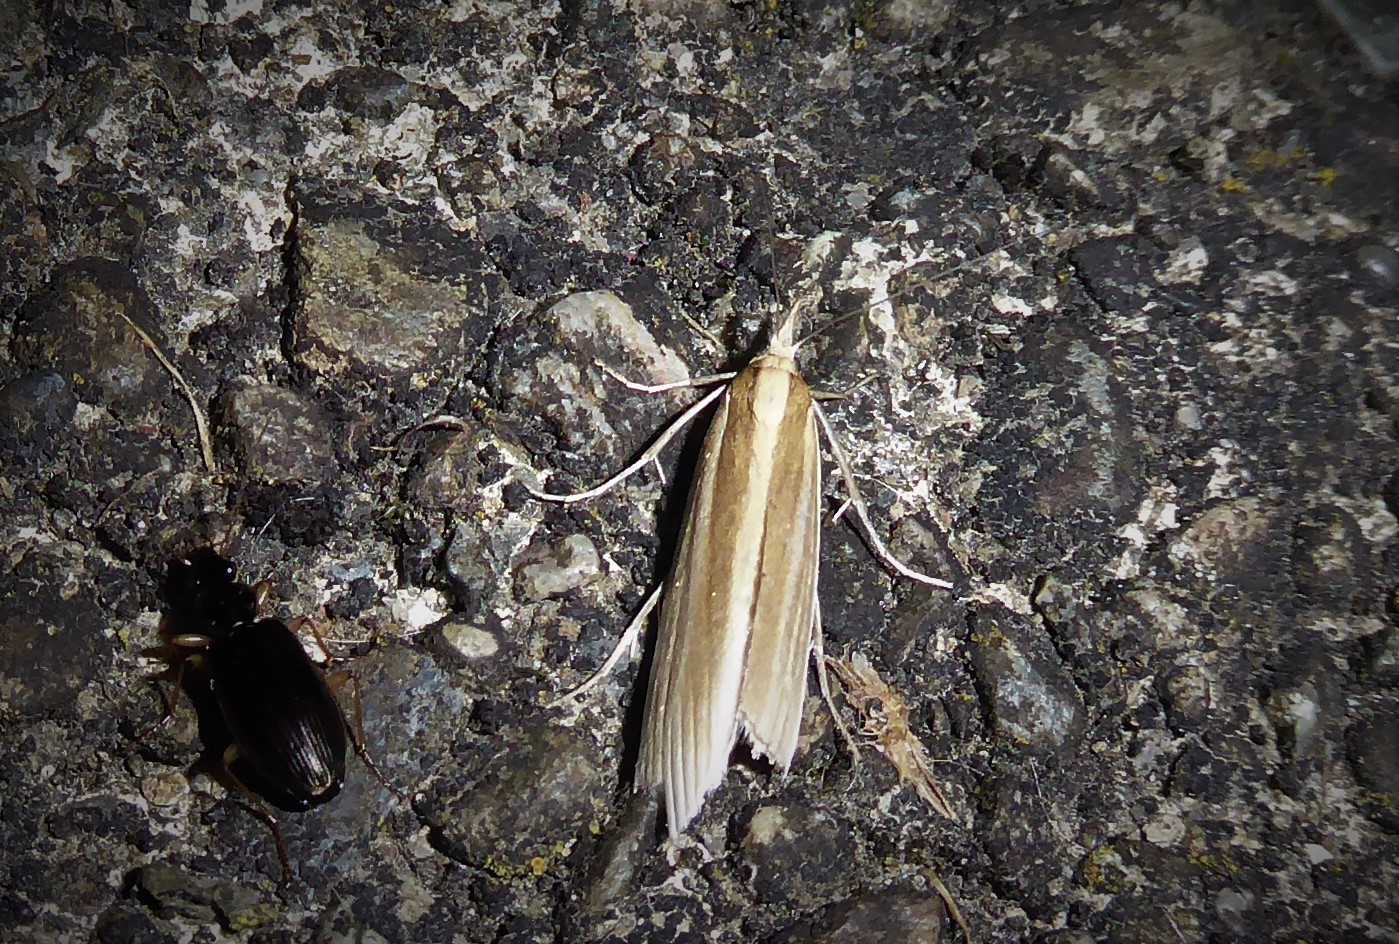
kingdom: Animalia
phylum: Arthropoda
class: Insecta
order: Lepidoptera
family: Crambidae
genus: Orocrambus
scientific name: Orocrambus angustipennis
